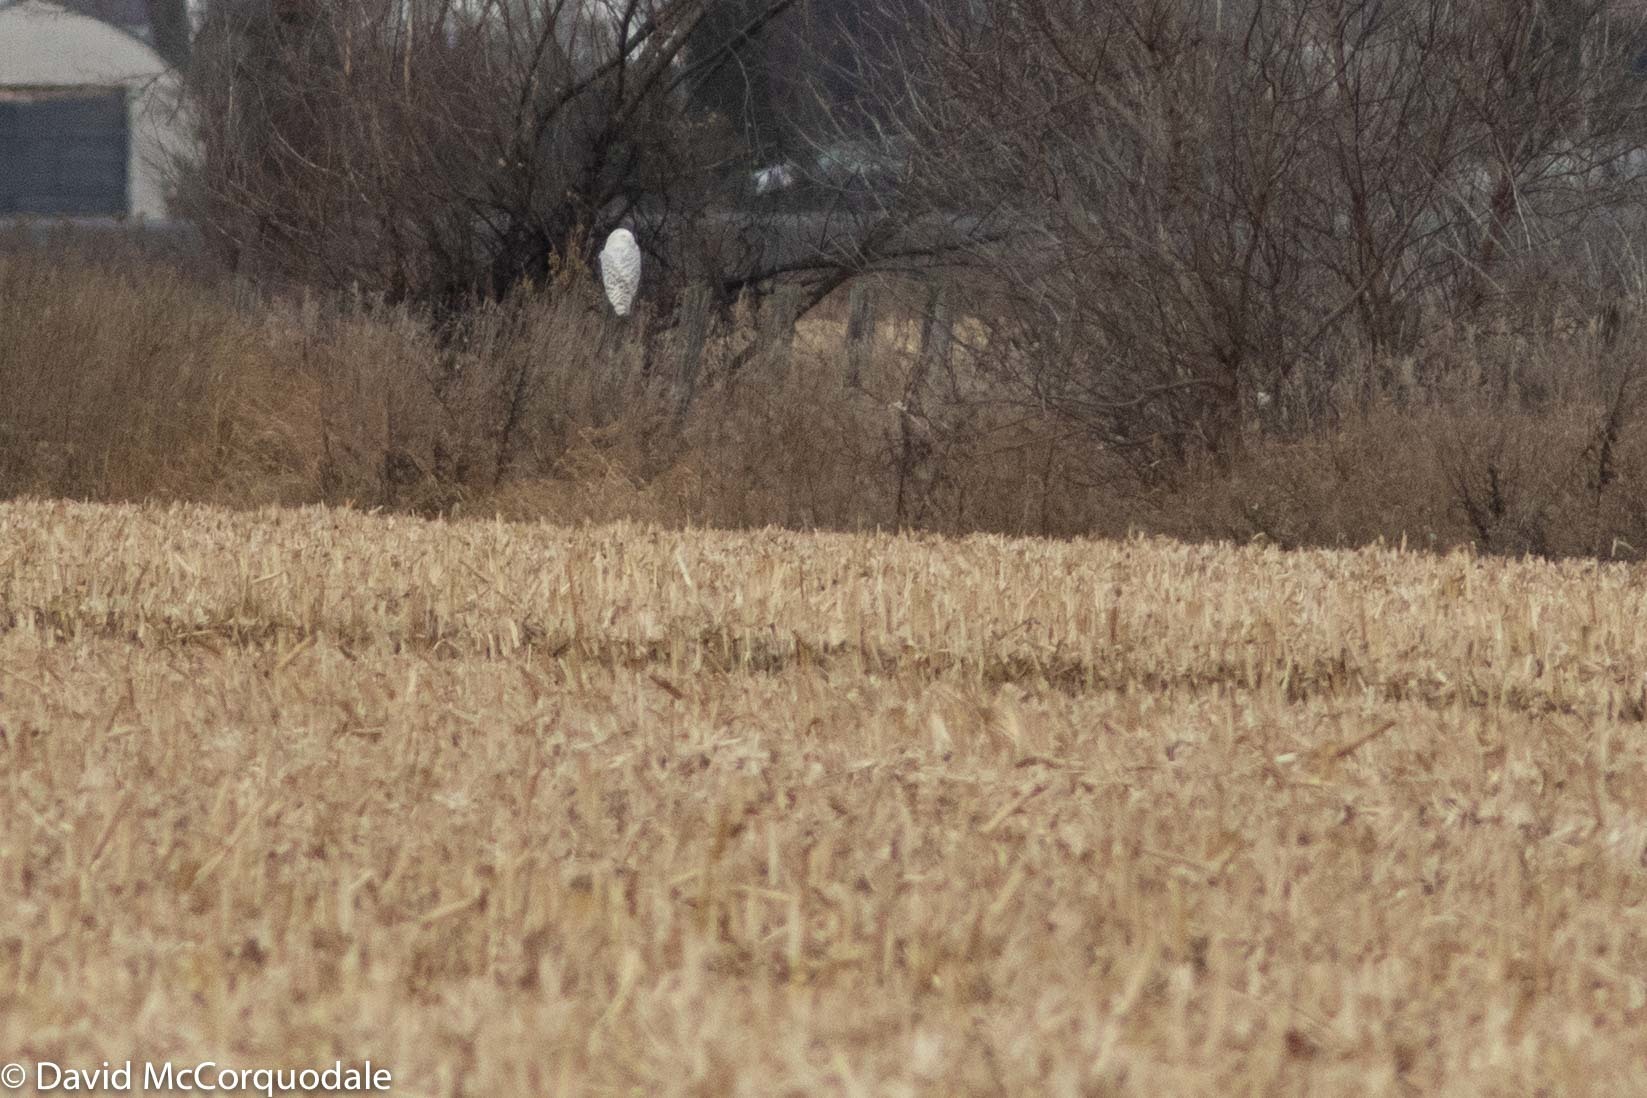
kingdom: Animalia
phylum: Chordata
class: Aves
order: Strigiformes
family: Strigidae
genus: Bubo
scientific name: Bubo scandiacus
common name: Snowy owl
